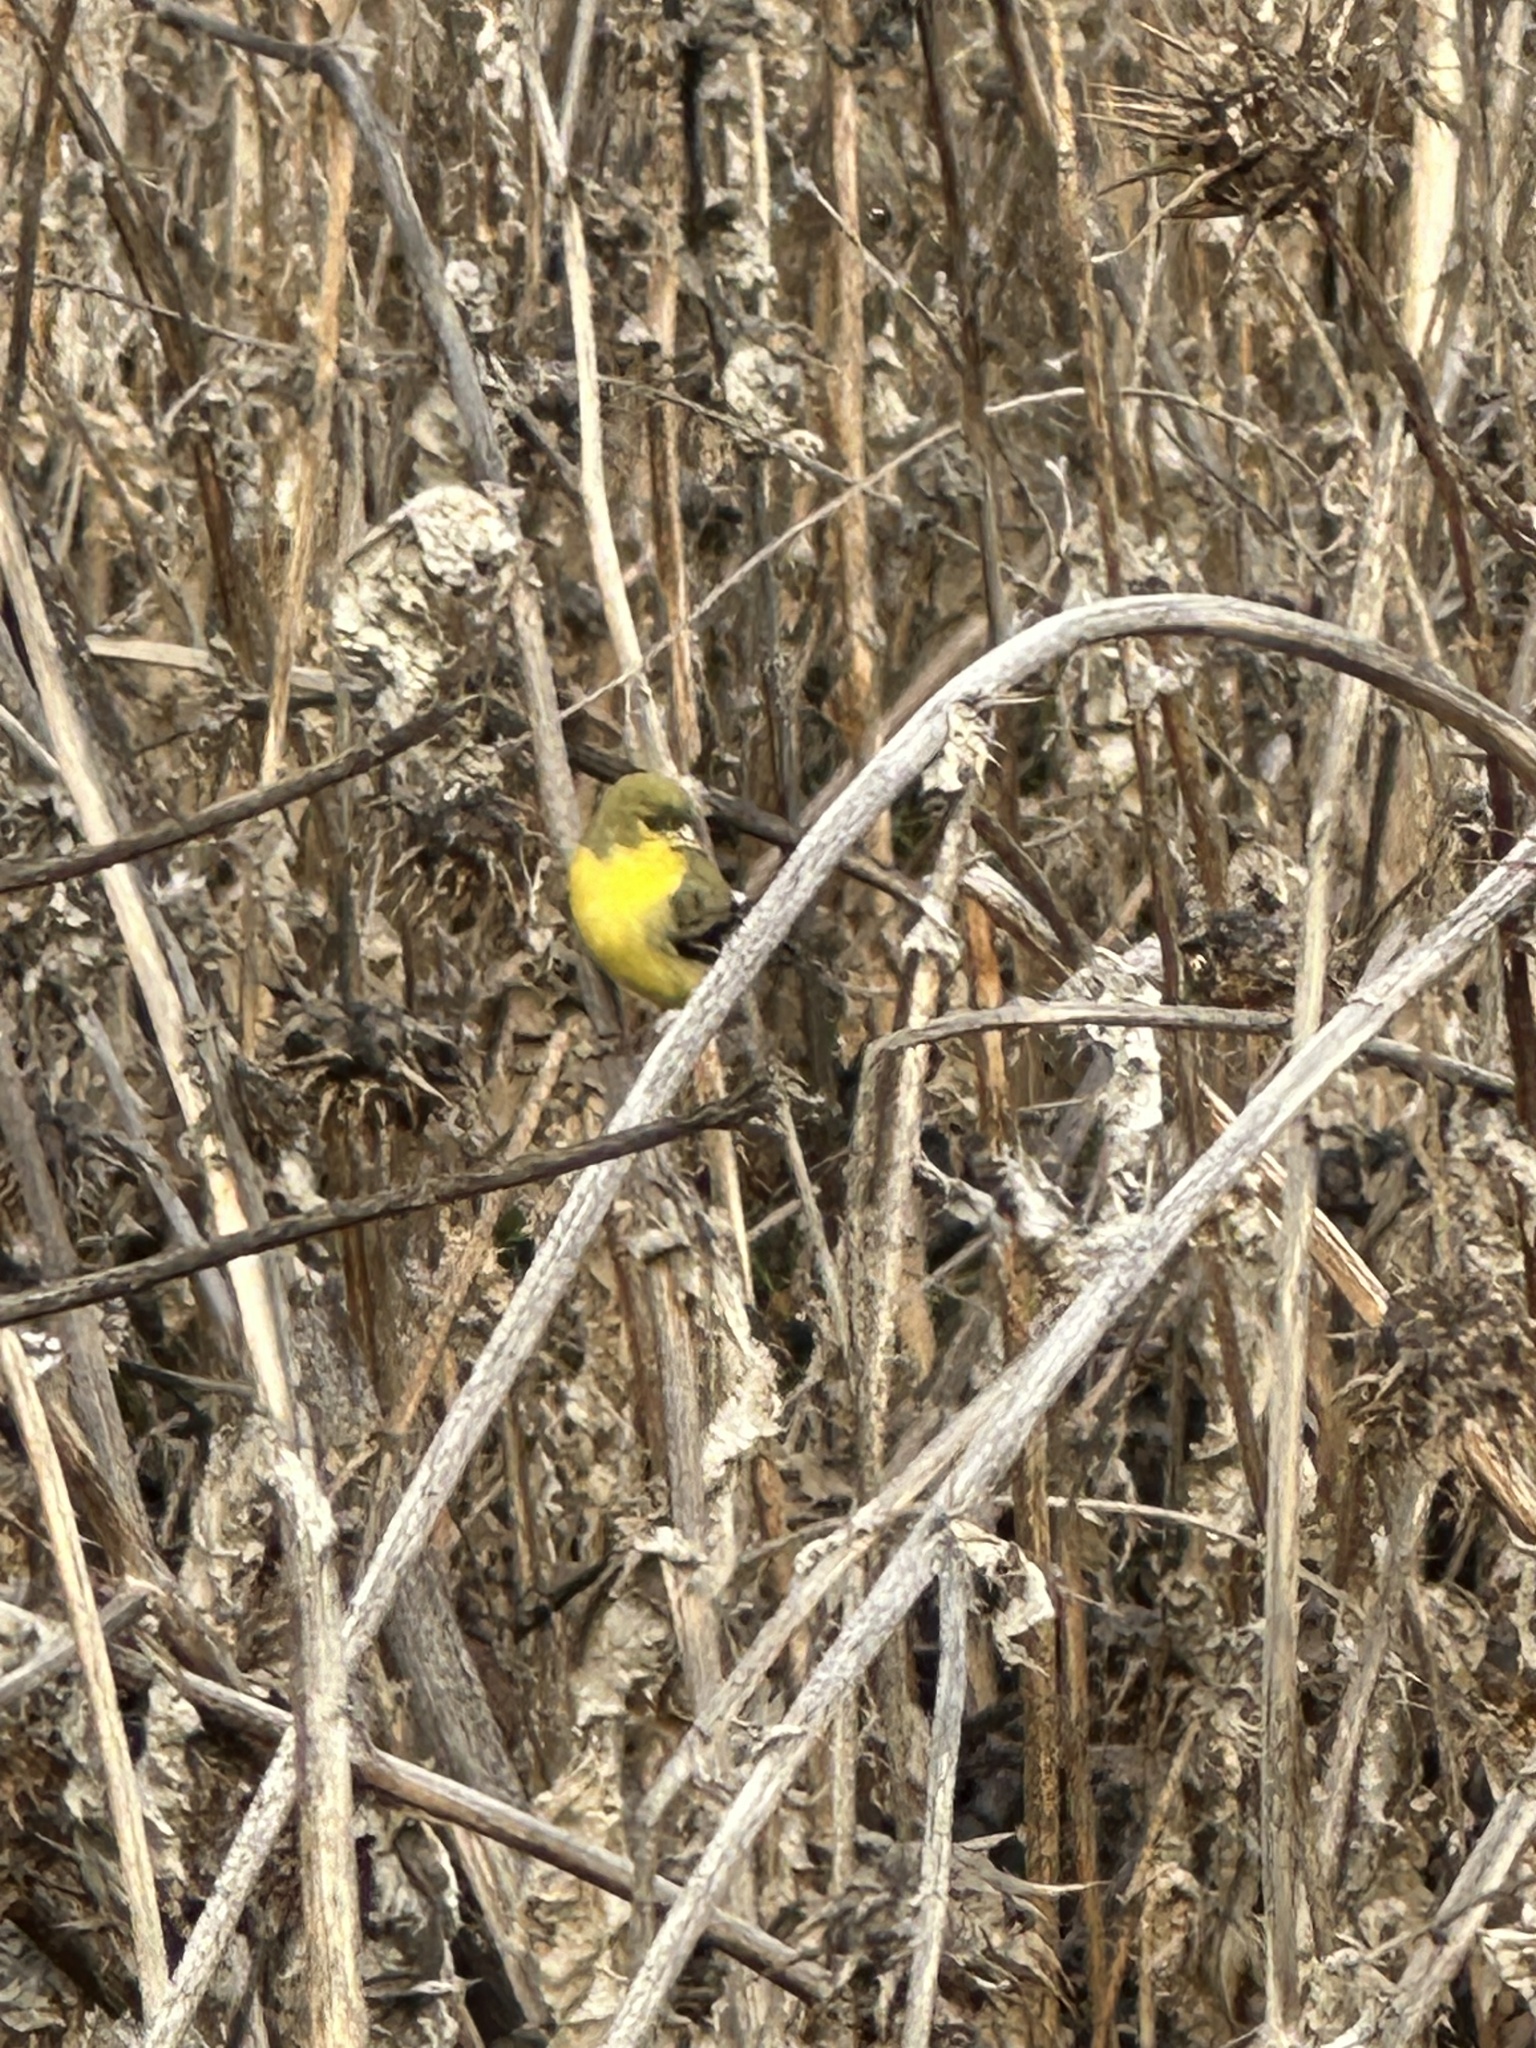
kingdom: Animalia
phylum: Chordata
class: Aves
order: Passeriformes
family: Fringillidae
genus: Spinus
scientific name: Spinus psaltria
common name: Lesser goldfinch
